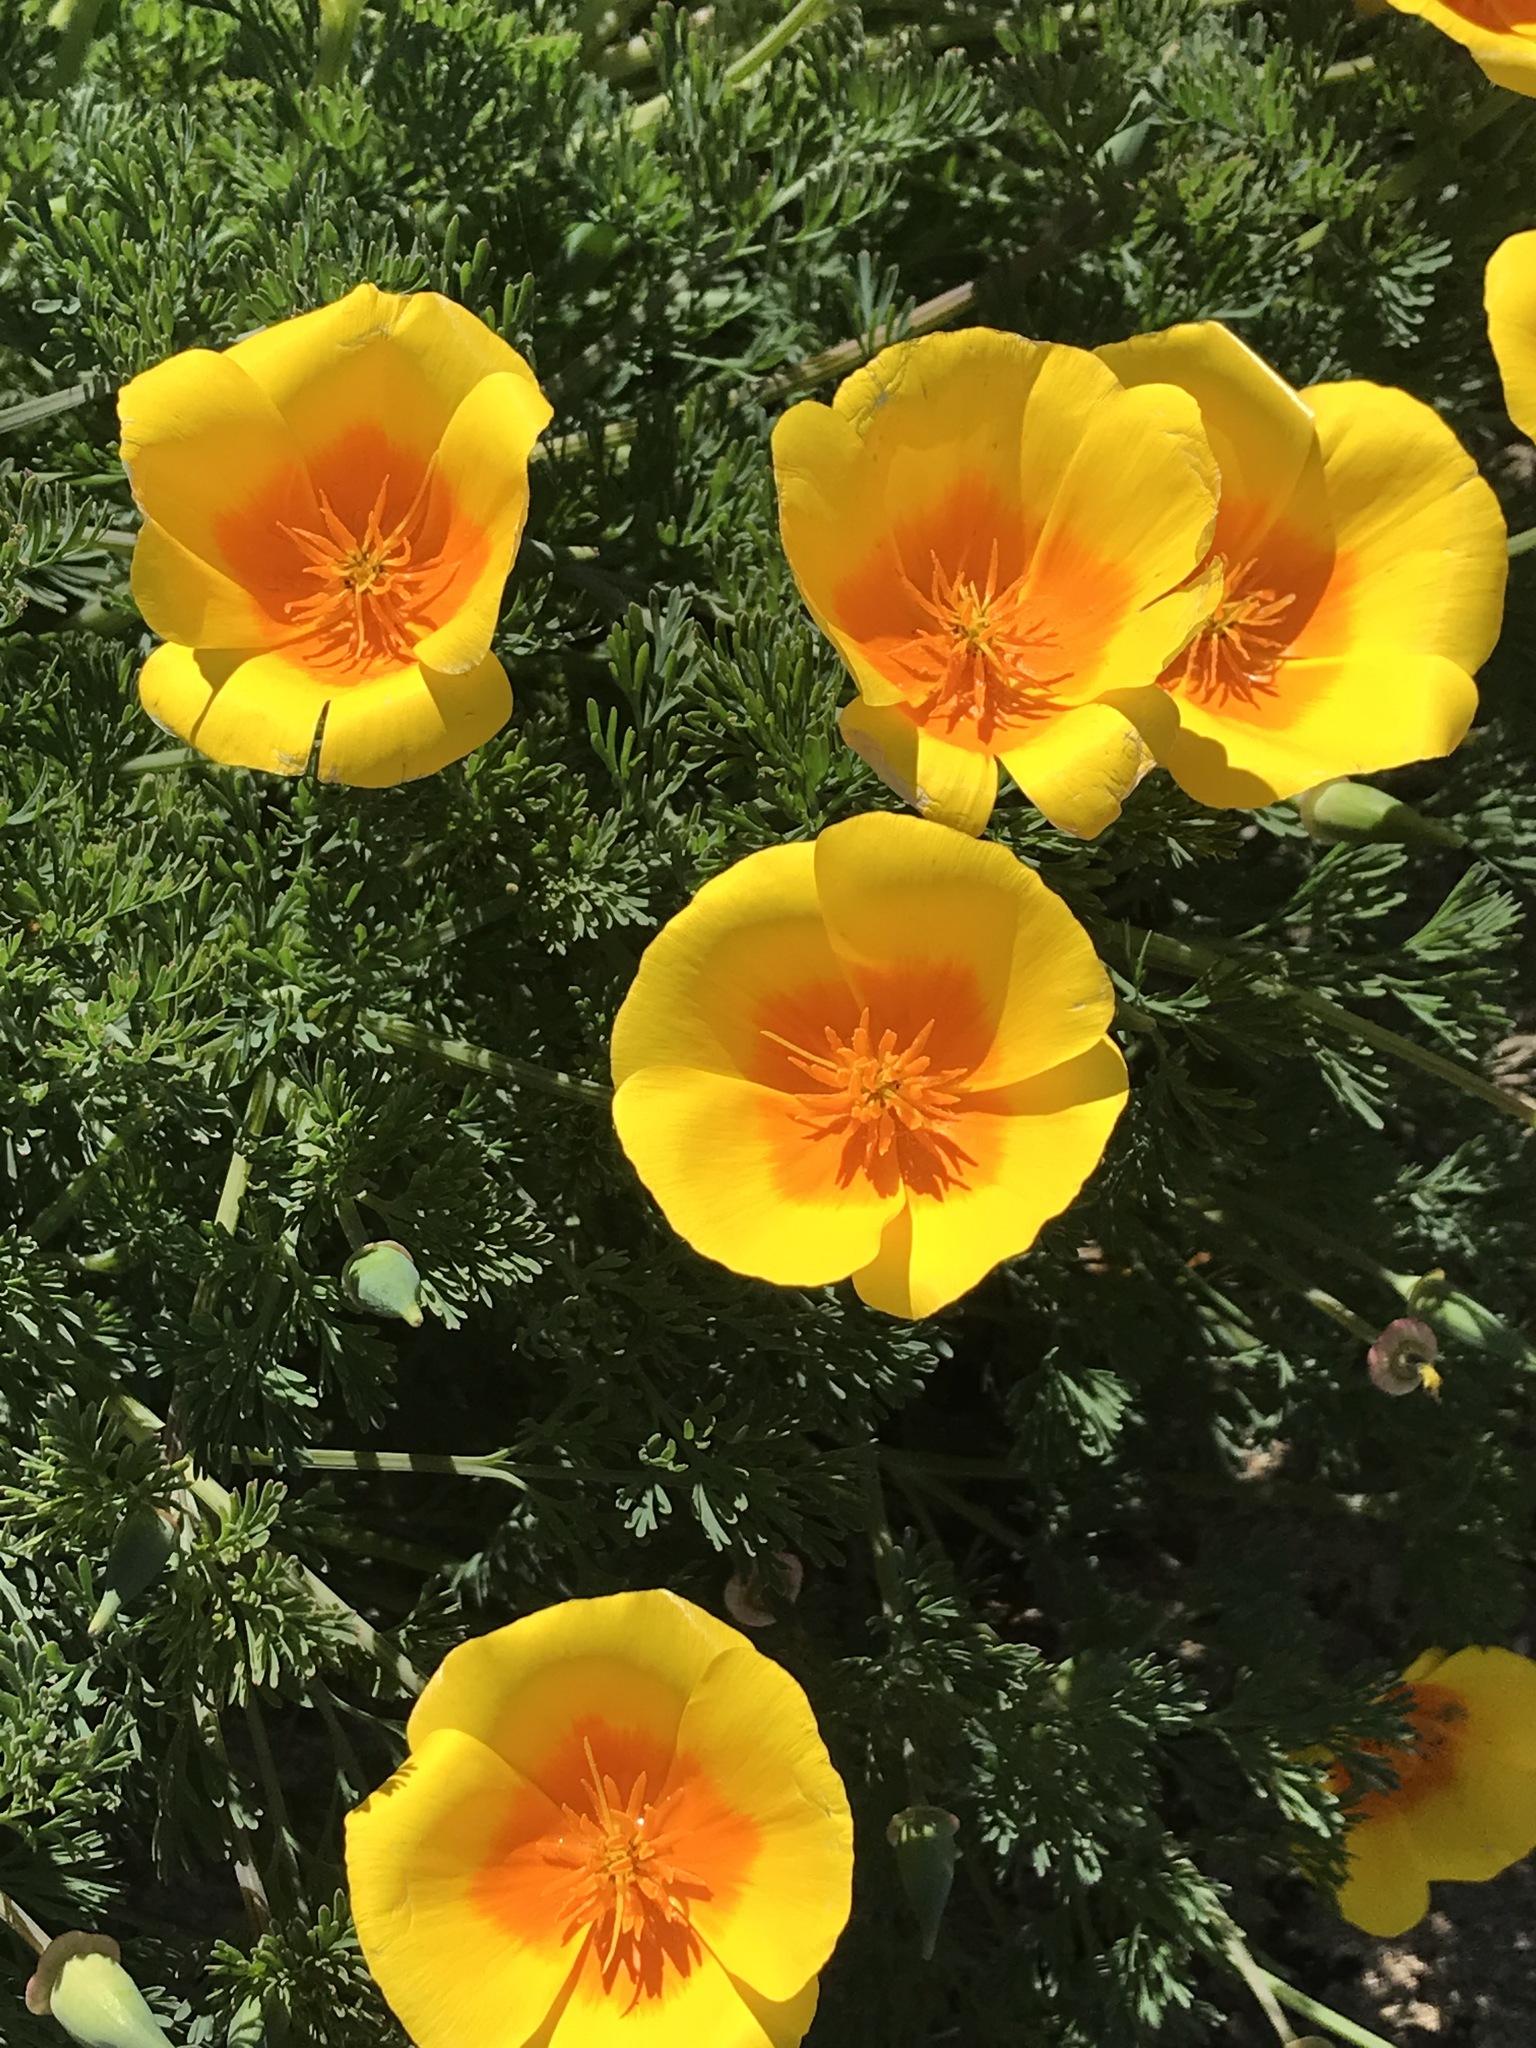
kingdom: Plantae
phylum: Tracheophyta
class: Magnoliopsida
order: Ranunculales
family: Papaveraceae
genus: Eschscholzia
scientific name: Eschscholzia californica
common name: California poppy
